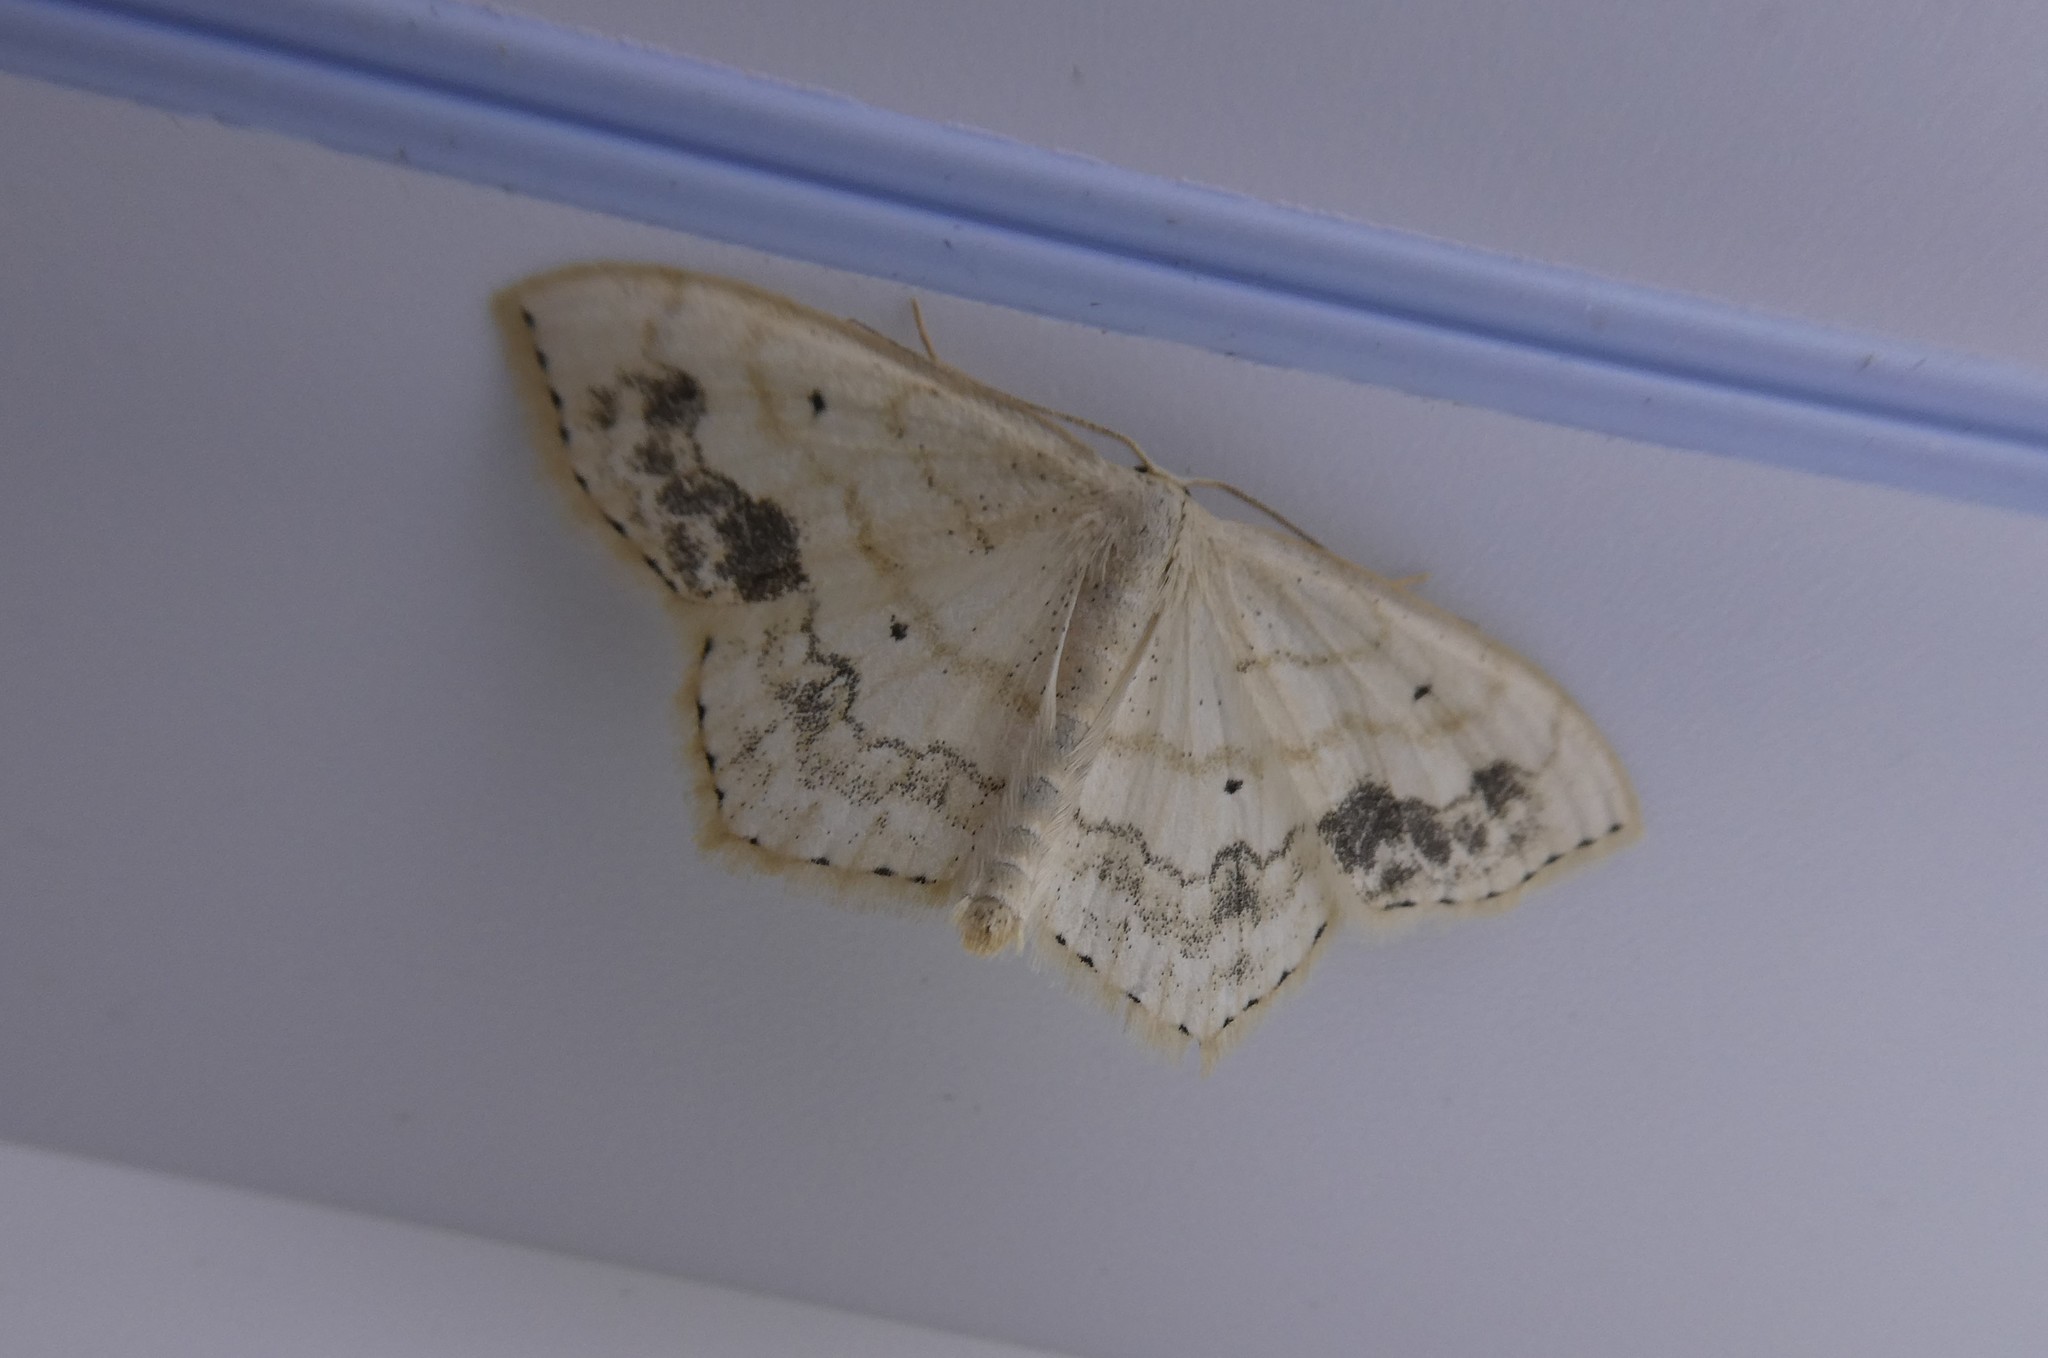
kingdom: Animalia
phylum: Arthropoda
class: Insecta
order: Lepidoptera
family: Geometridae
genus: Scopula
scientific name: Scopula limboundata
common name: Large lace border
